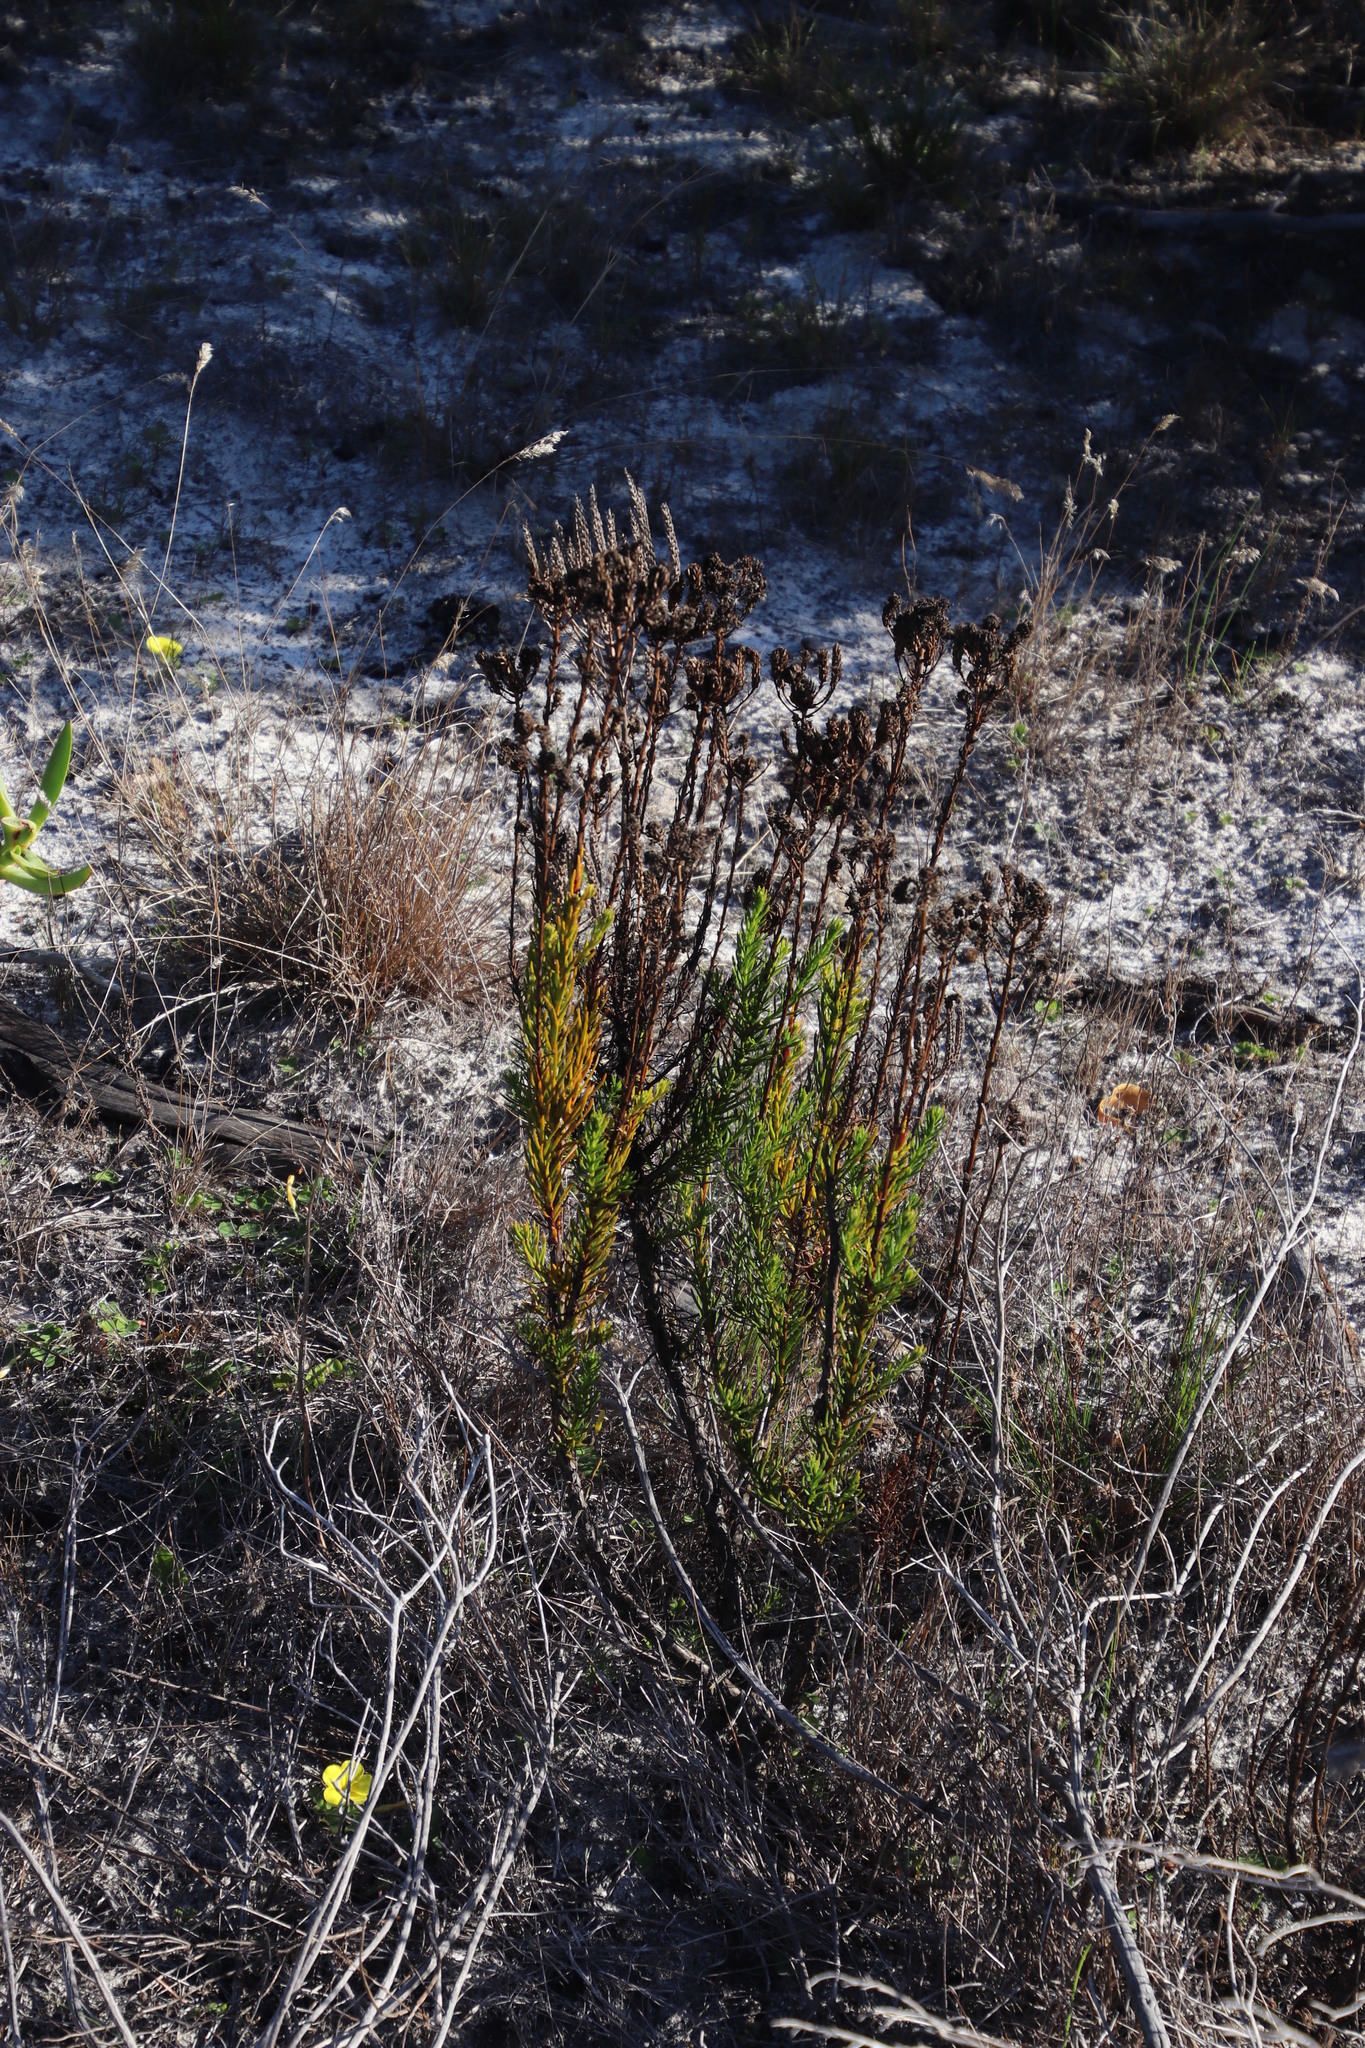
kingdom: Plantae
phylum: Tracheophyta
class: Magnoliopsida
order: Lamiales
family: Scrophulariaceae
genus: Pseudoselago
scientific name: Pseudoselago spuria
